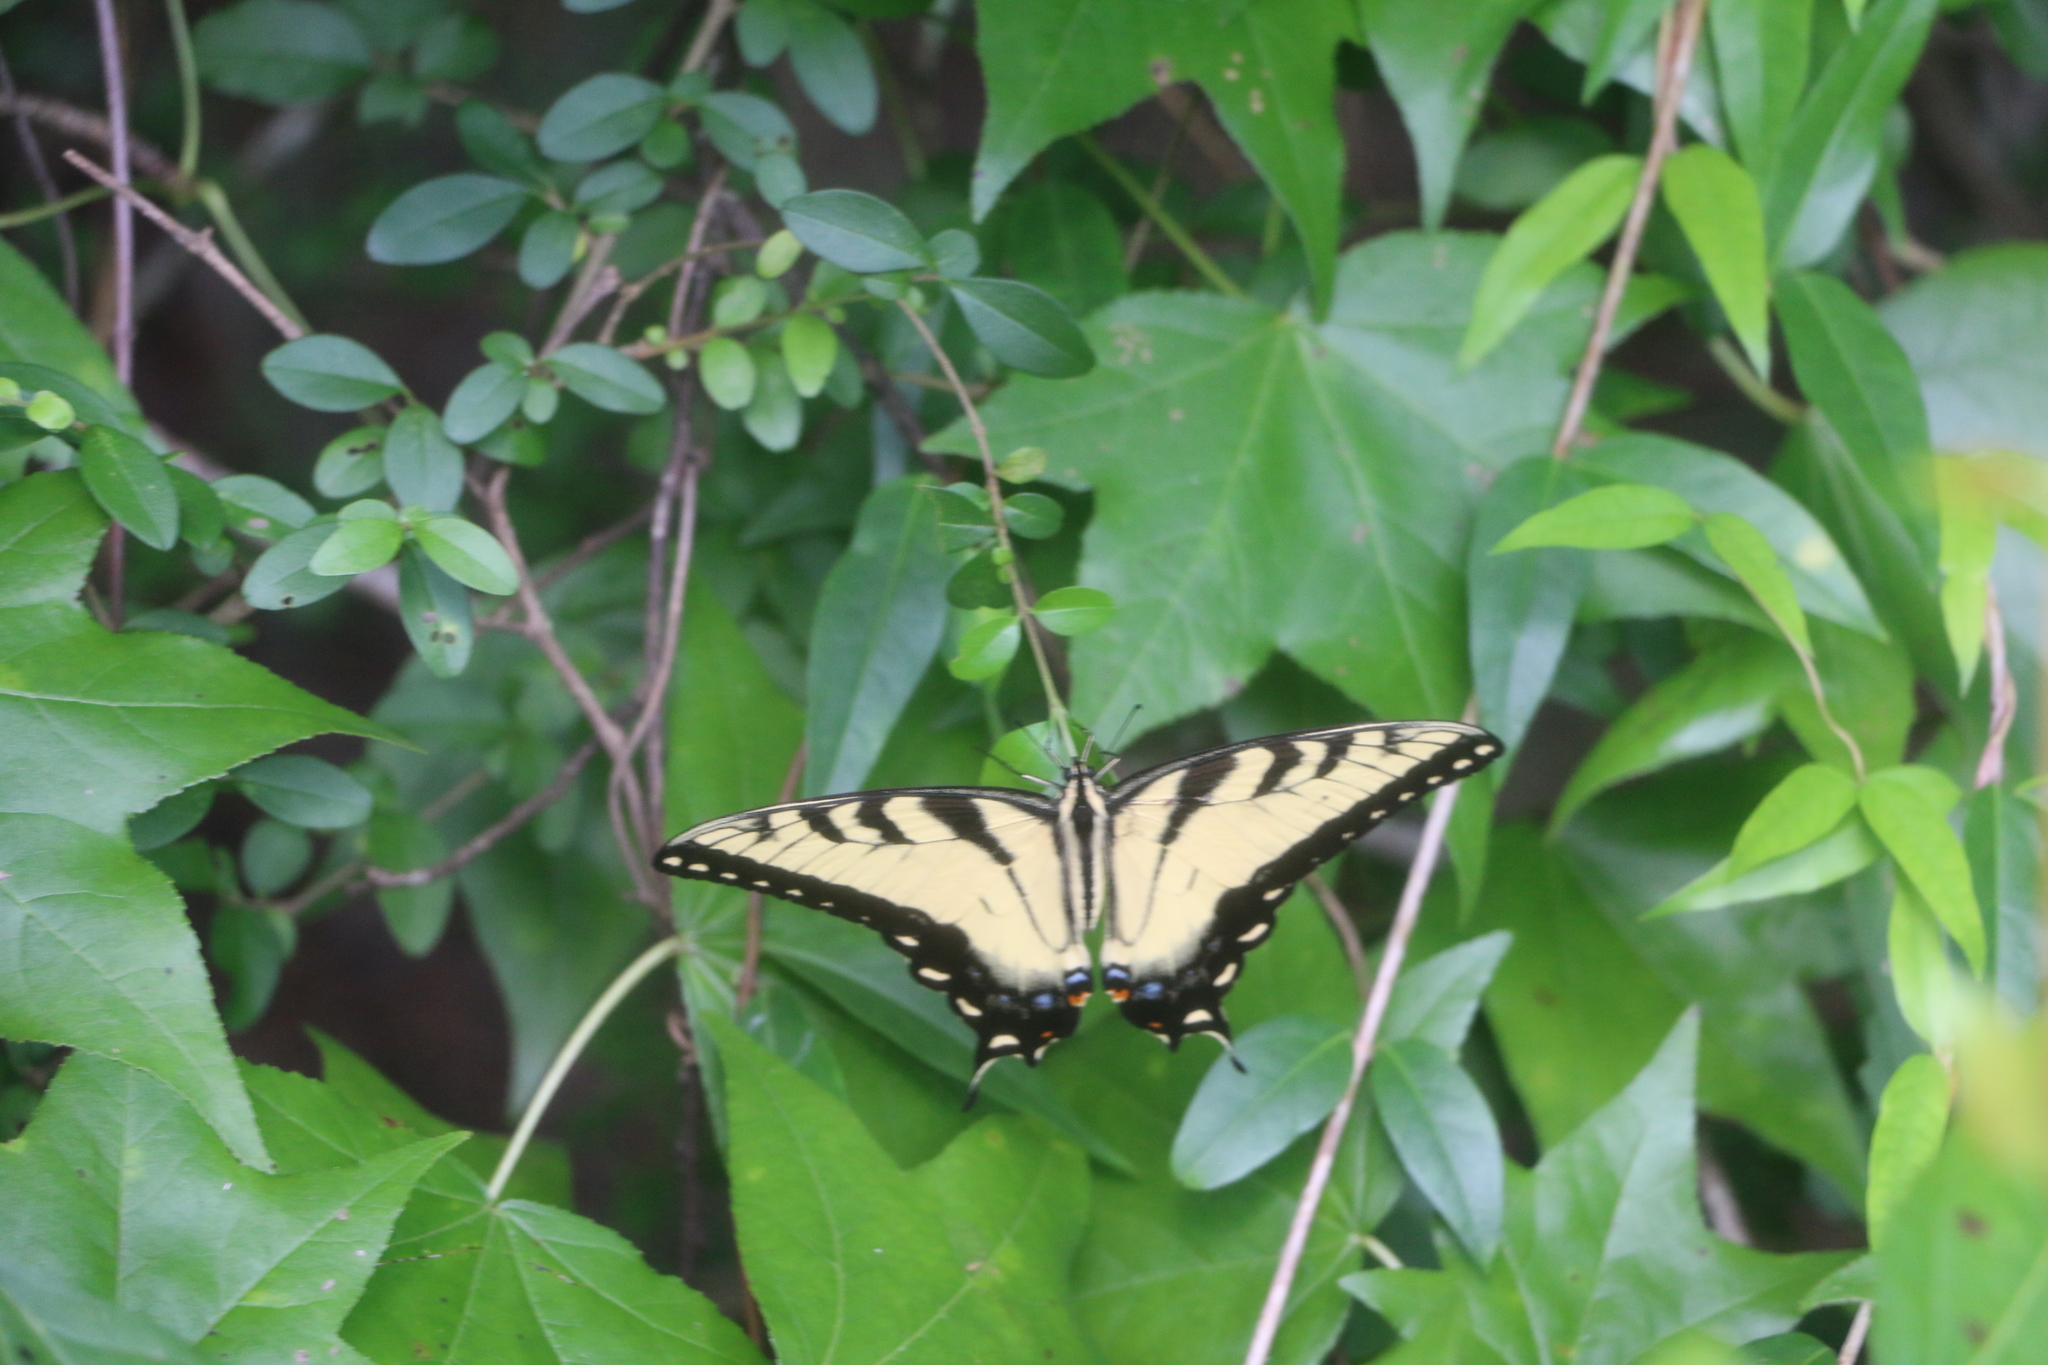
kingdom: Animalia
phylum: Arthropoda
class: Insecta
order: Lepidoptera
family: Papilionidae
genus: Papilio
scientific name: Papilio glaucus
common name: Tiger swallowtail
